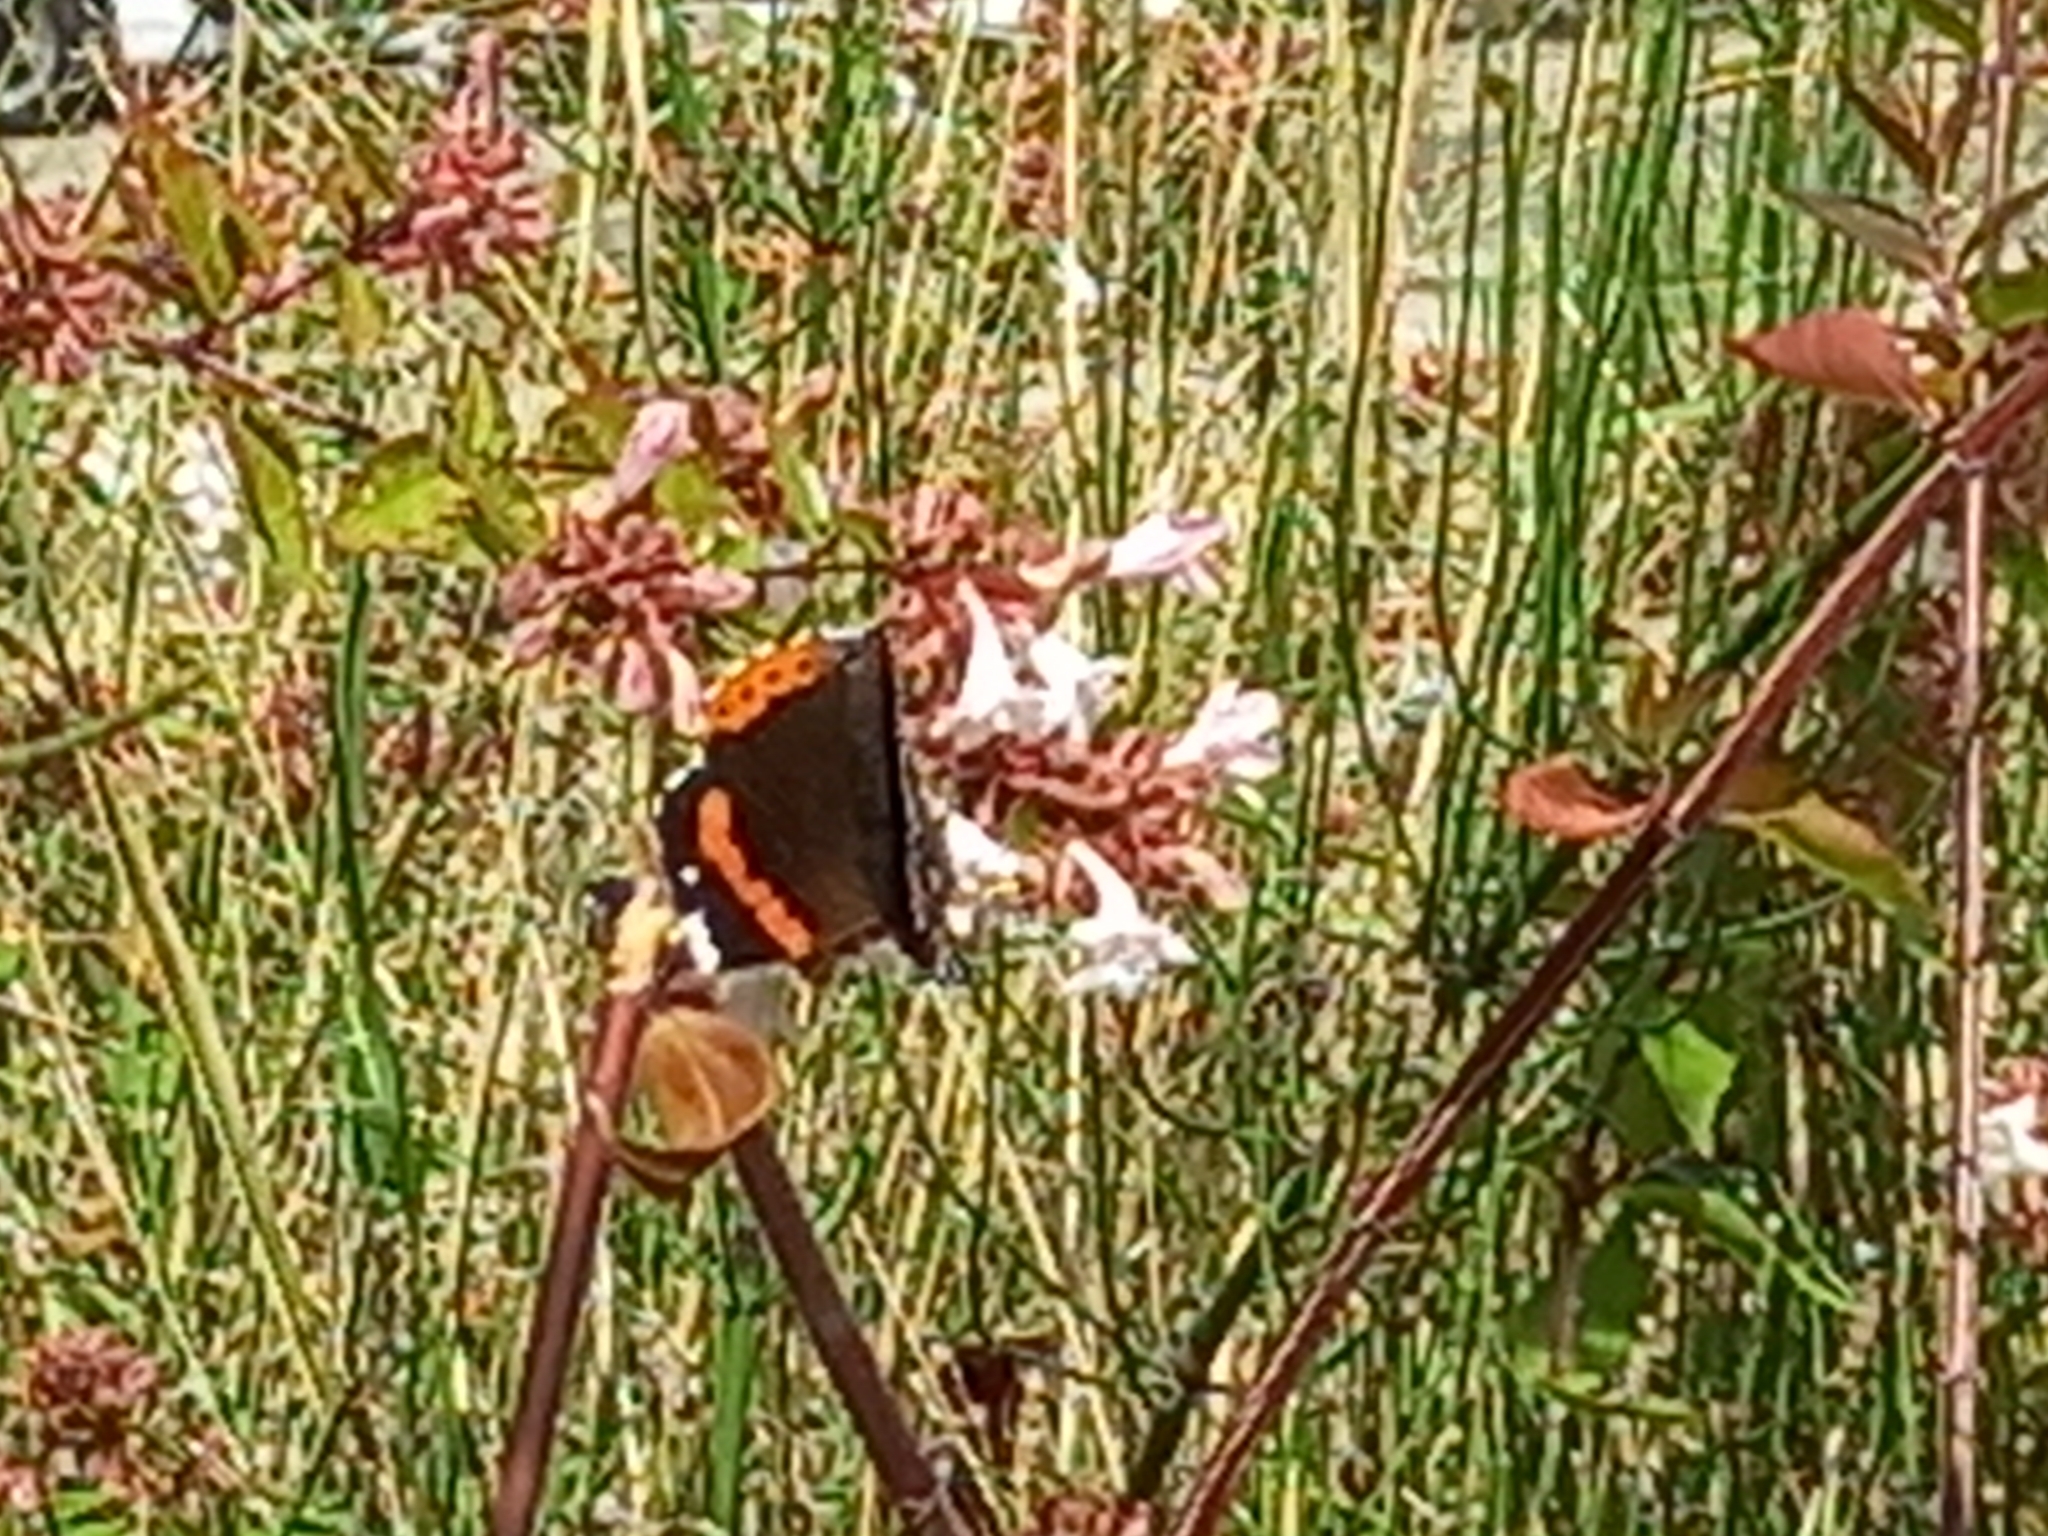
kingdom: Animalia
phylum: Arthropoda
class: Insecta
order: Lepidoptera
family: Nymphalidae
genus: Vanessa
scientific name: Vanessa atalanta
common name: Red admiral
